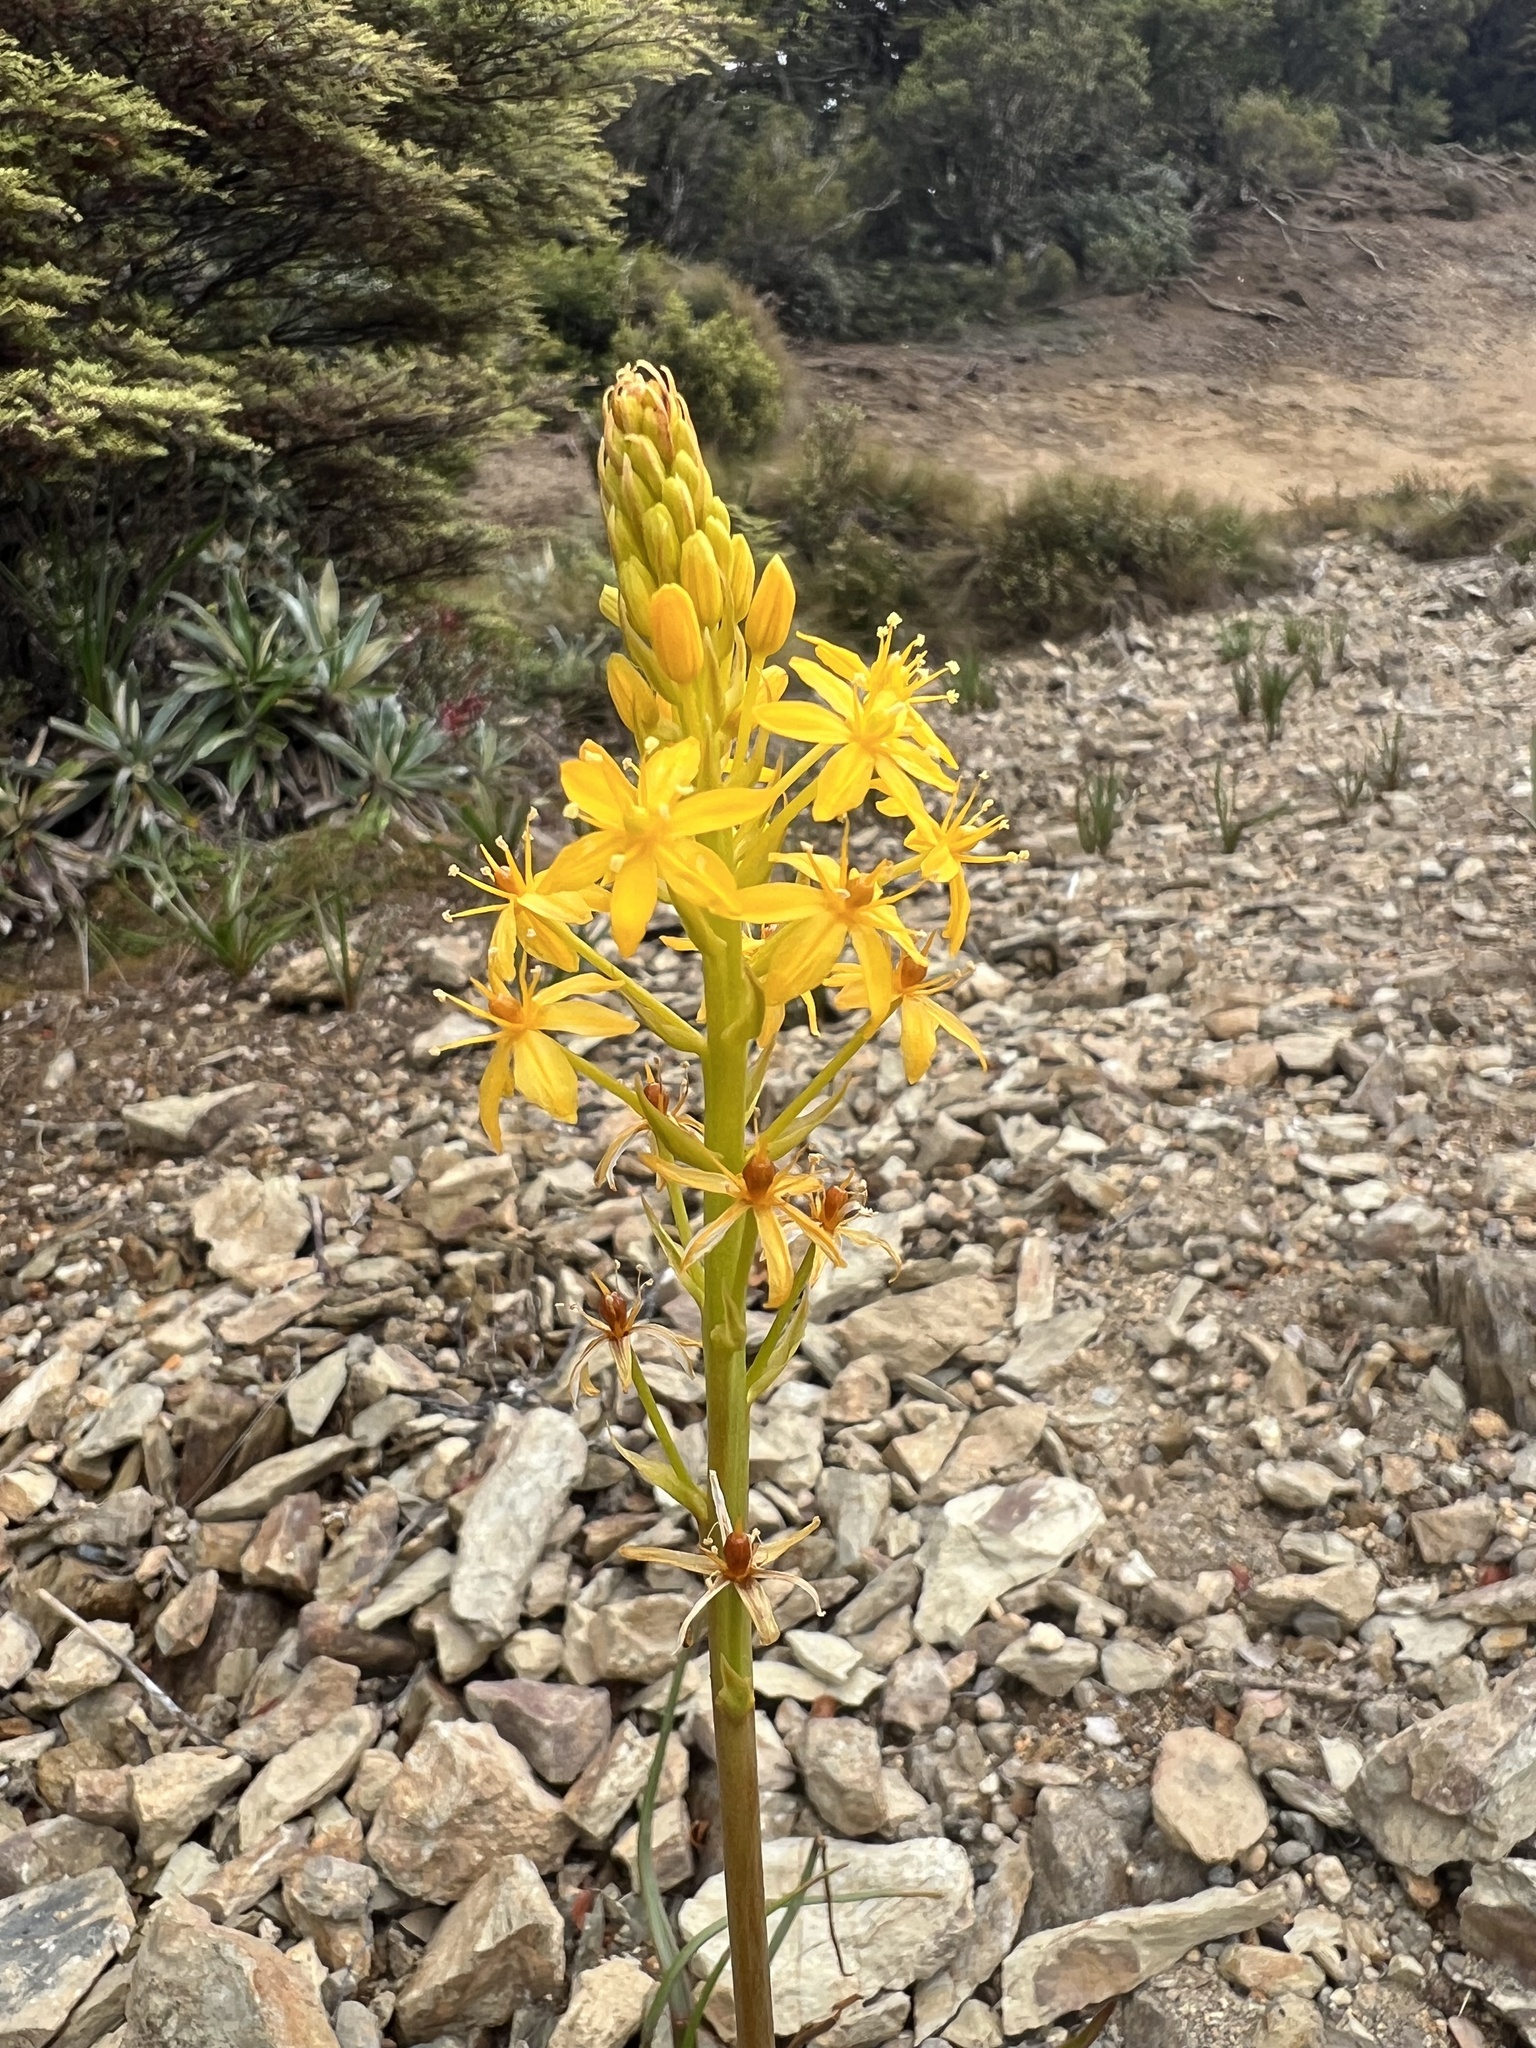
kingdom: Plantae
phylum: Tracheophyta
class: Liliopsida
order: Asparagales
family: Asphodelaceae
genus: Bulbinella
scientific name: Bulbinella hookeri
